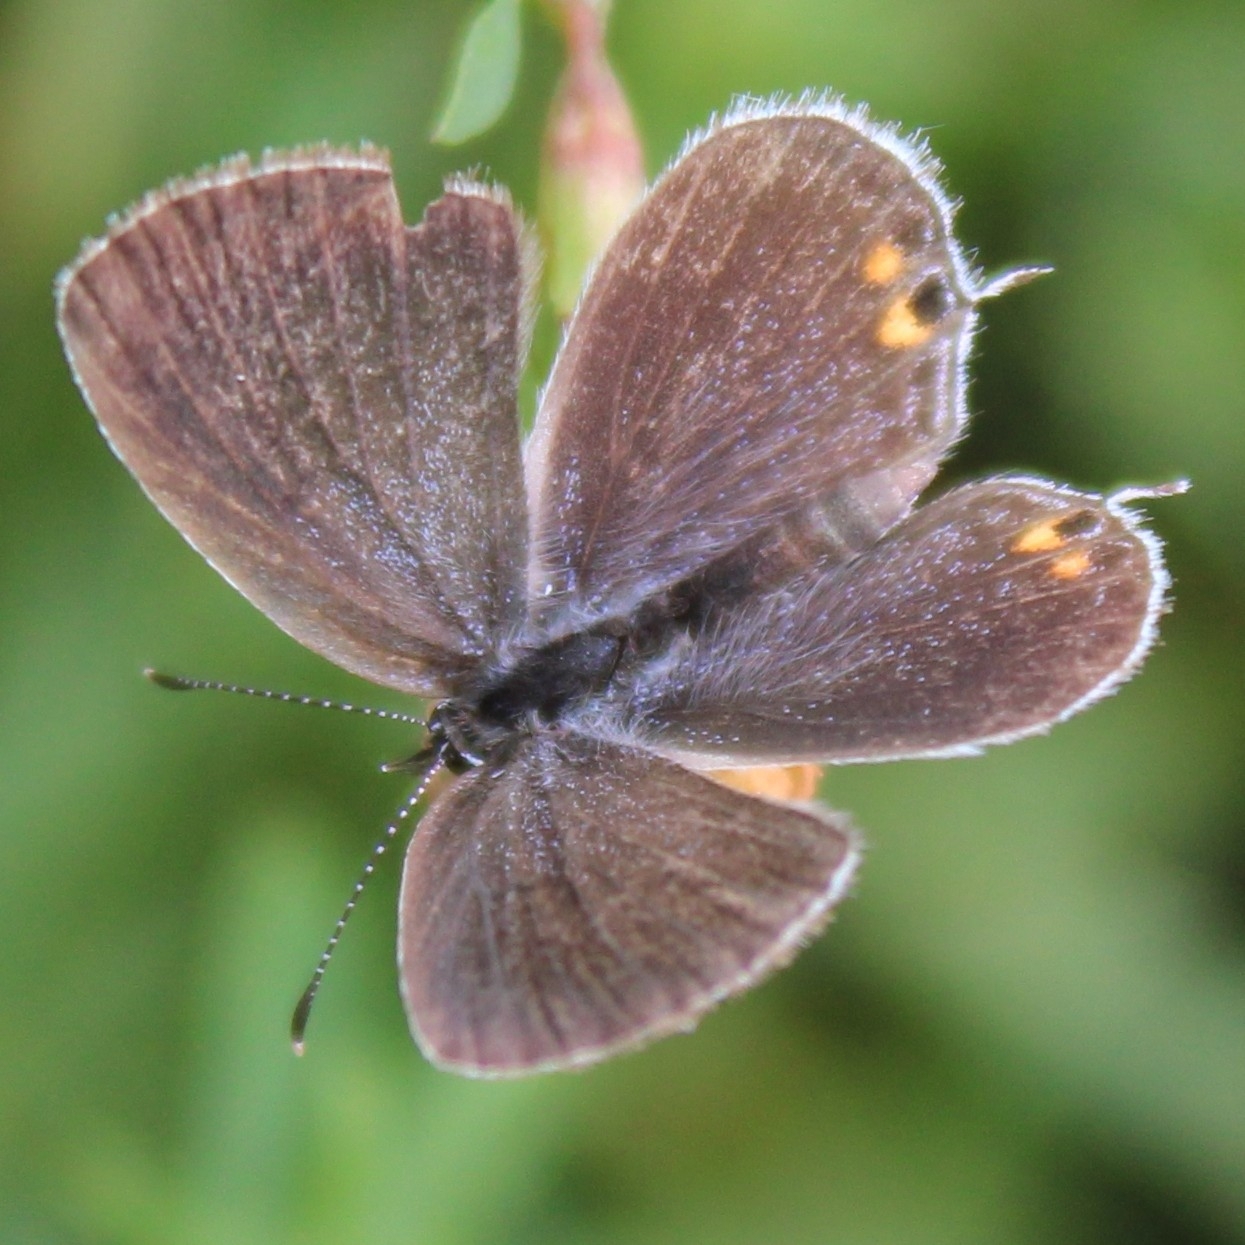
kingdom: Animalia
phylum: Arthropoda
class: Insecta
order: Lepidoptera
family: Lycaenidae
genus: Elkalyce
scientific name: Elkalyce comyntas
